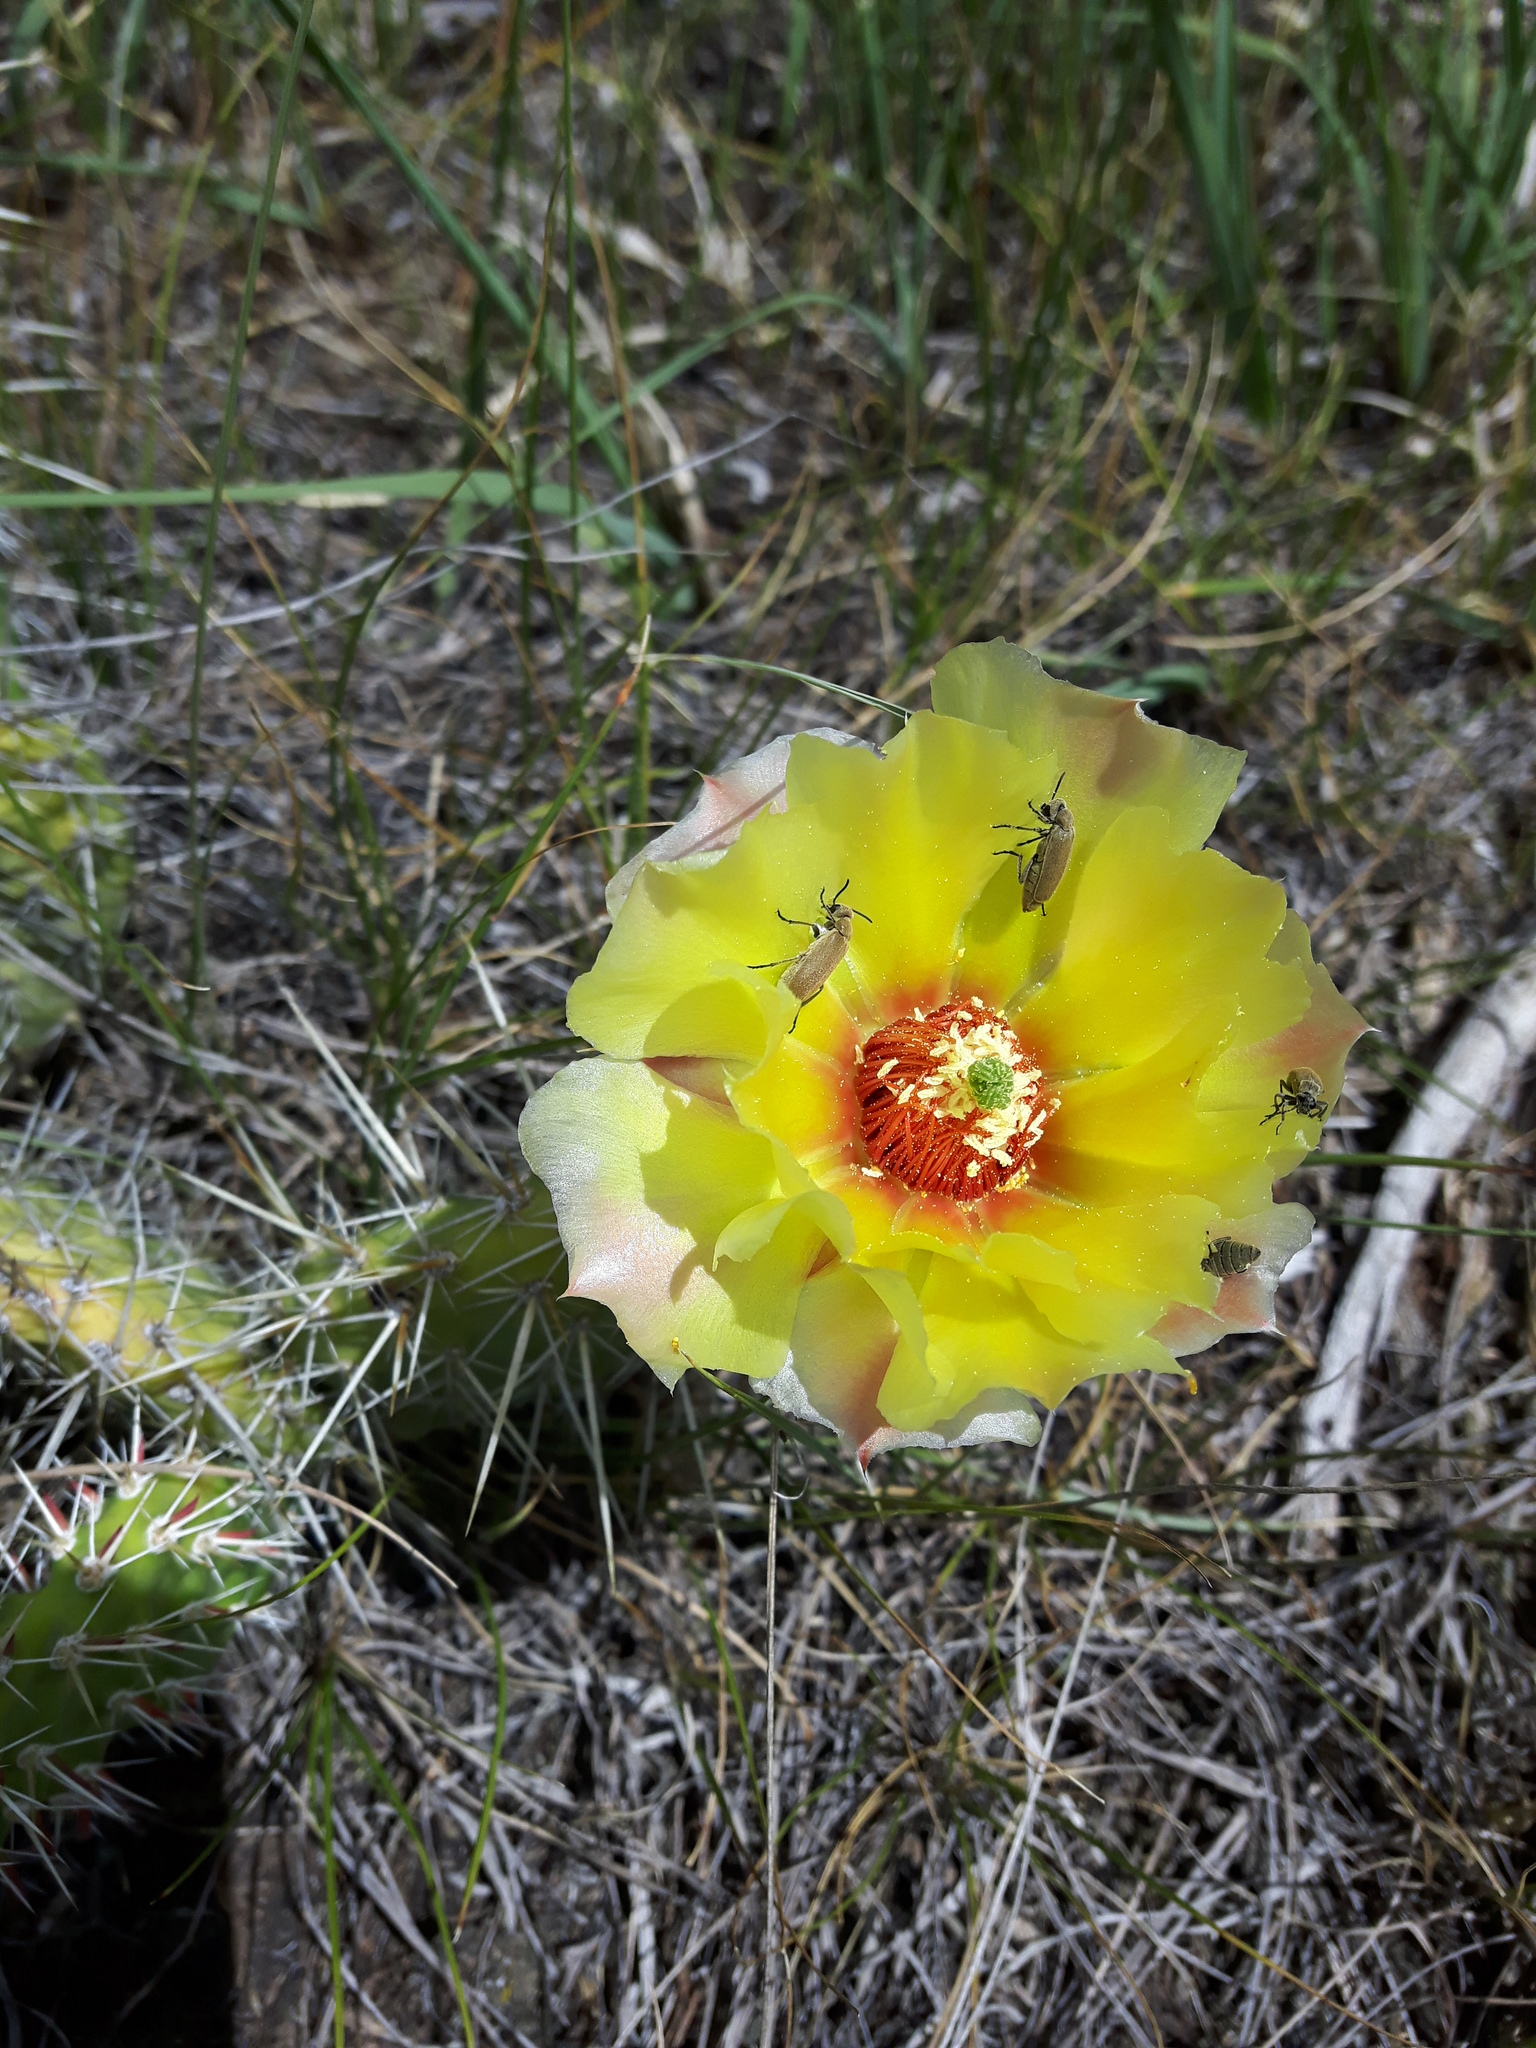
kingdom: Plantae
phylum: Tracheophyta
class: Magnoliopsida
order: Caryophyllales
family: Cactaceae
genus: Opuntia
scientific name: Opuntia polyacantha
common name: Plains prickly-pear
